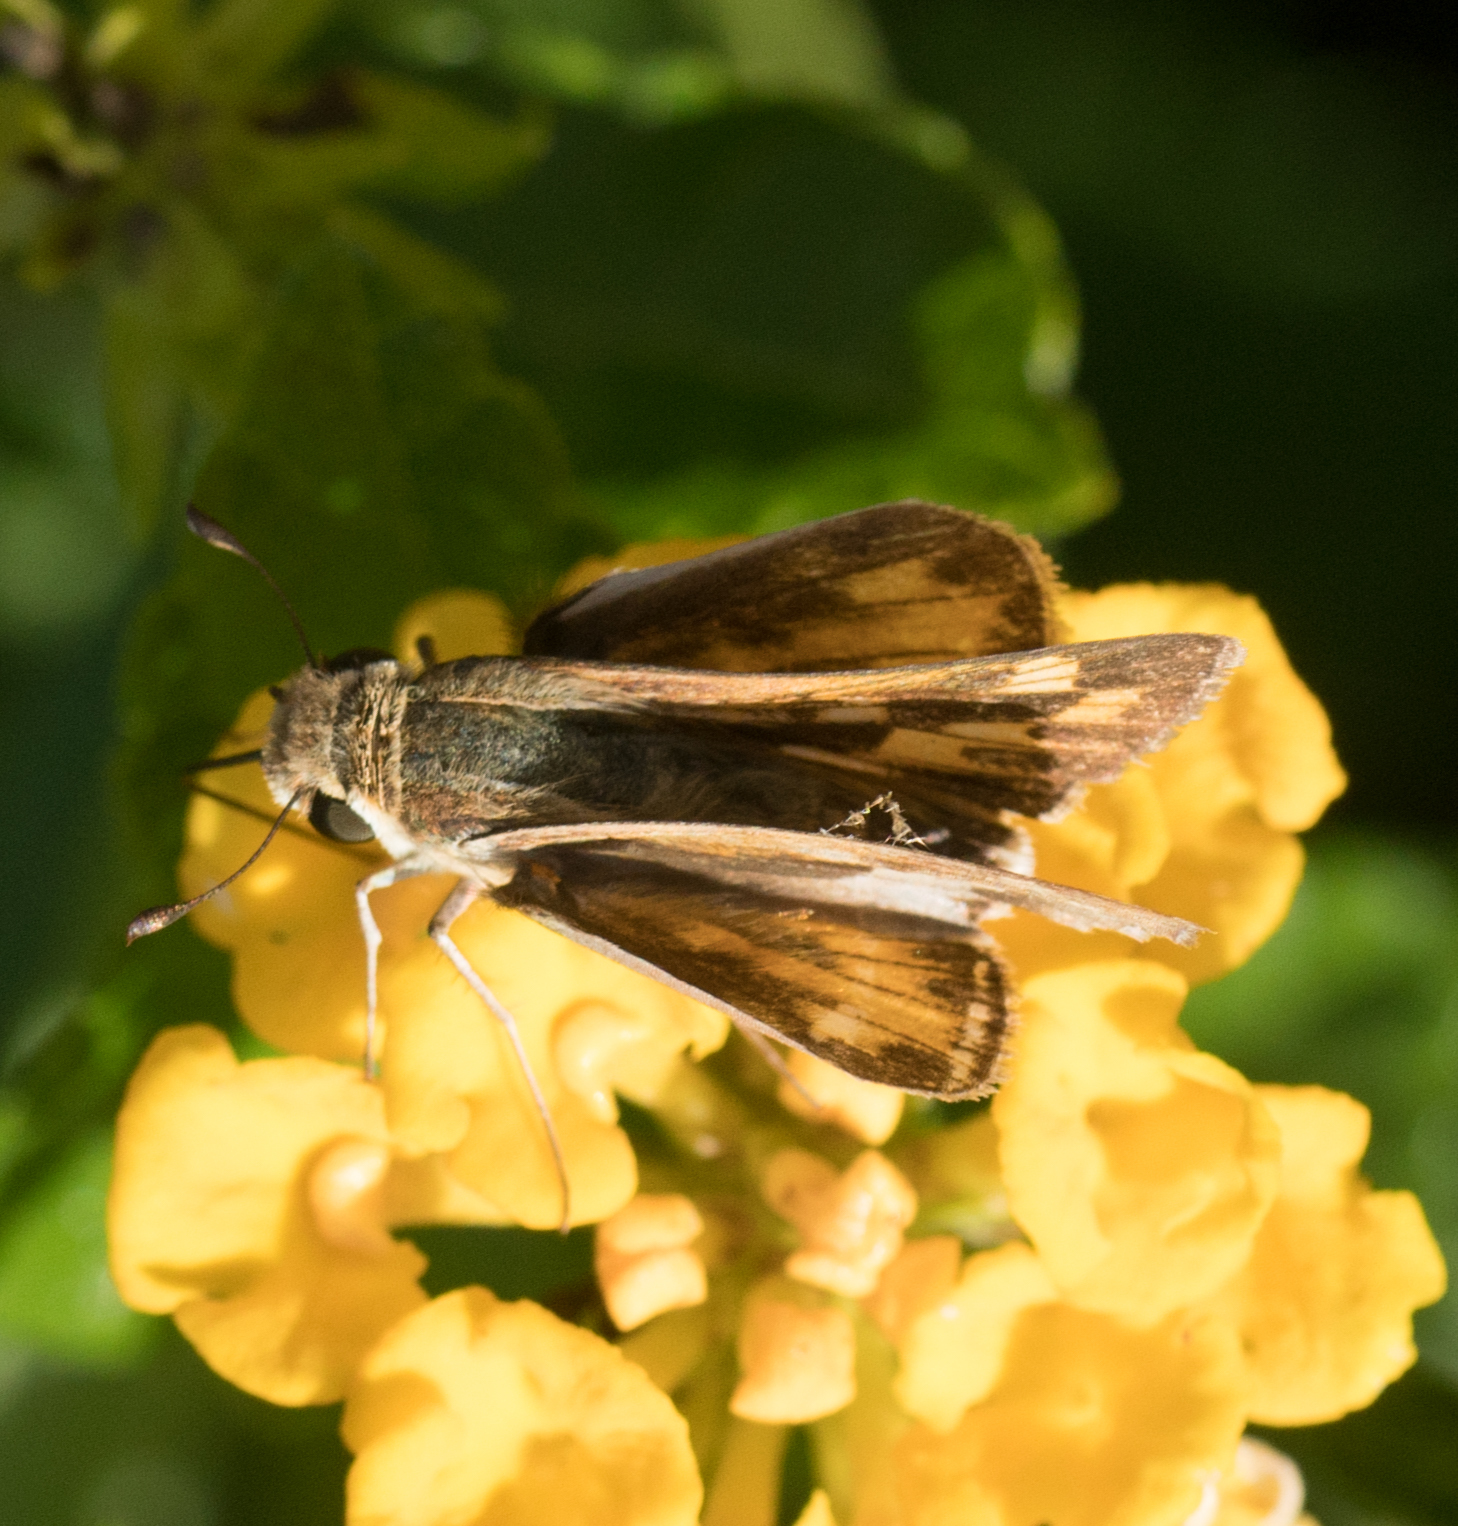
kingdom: Animalia
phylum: Arthropoda
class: Insecta
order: Lepidoptera
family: Hesperiidae
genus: Hylephila
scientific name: Hylephila phyleus
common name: Fiery skipper
